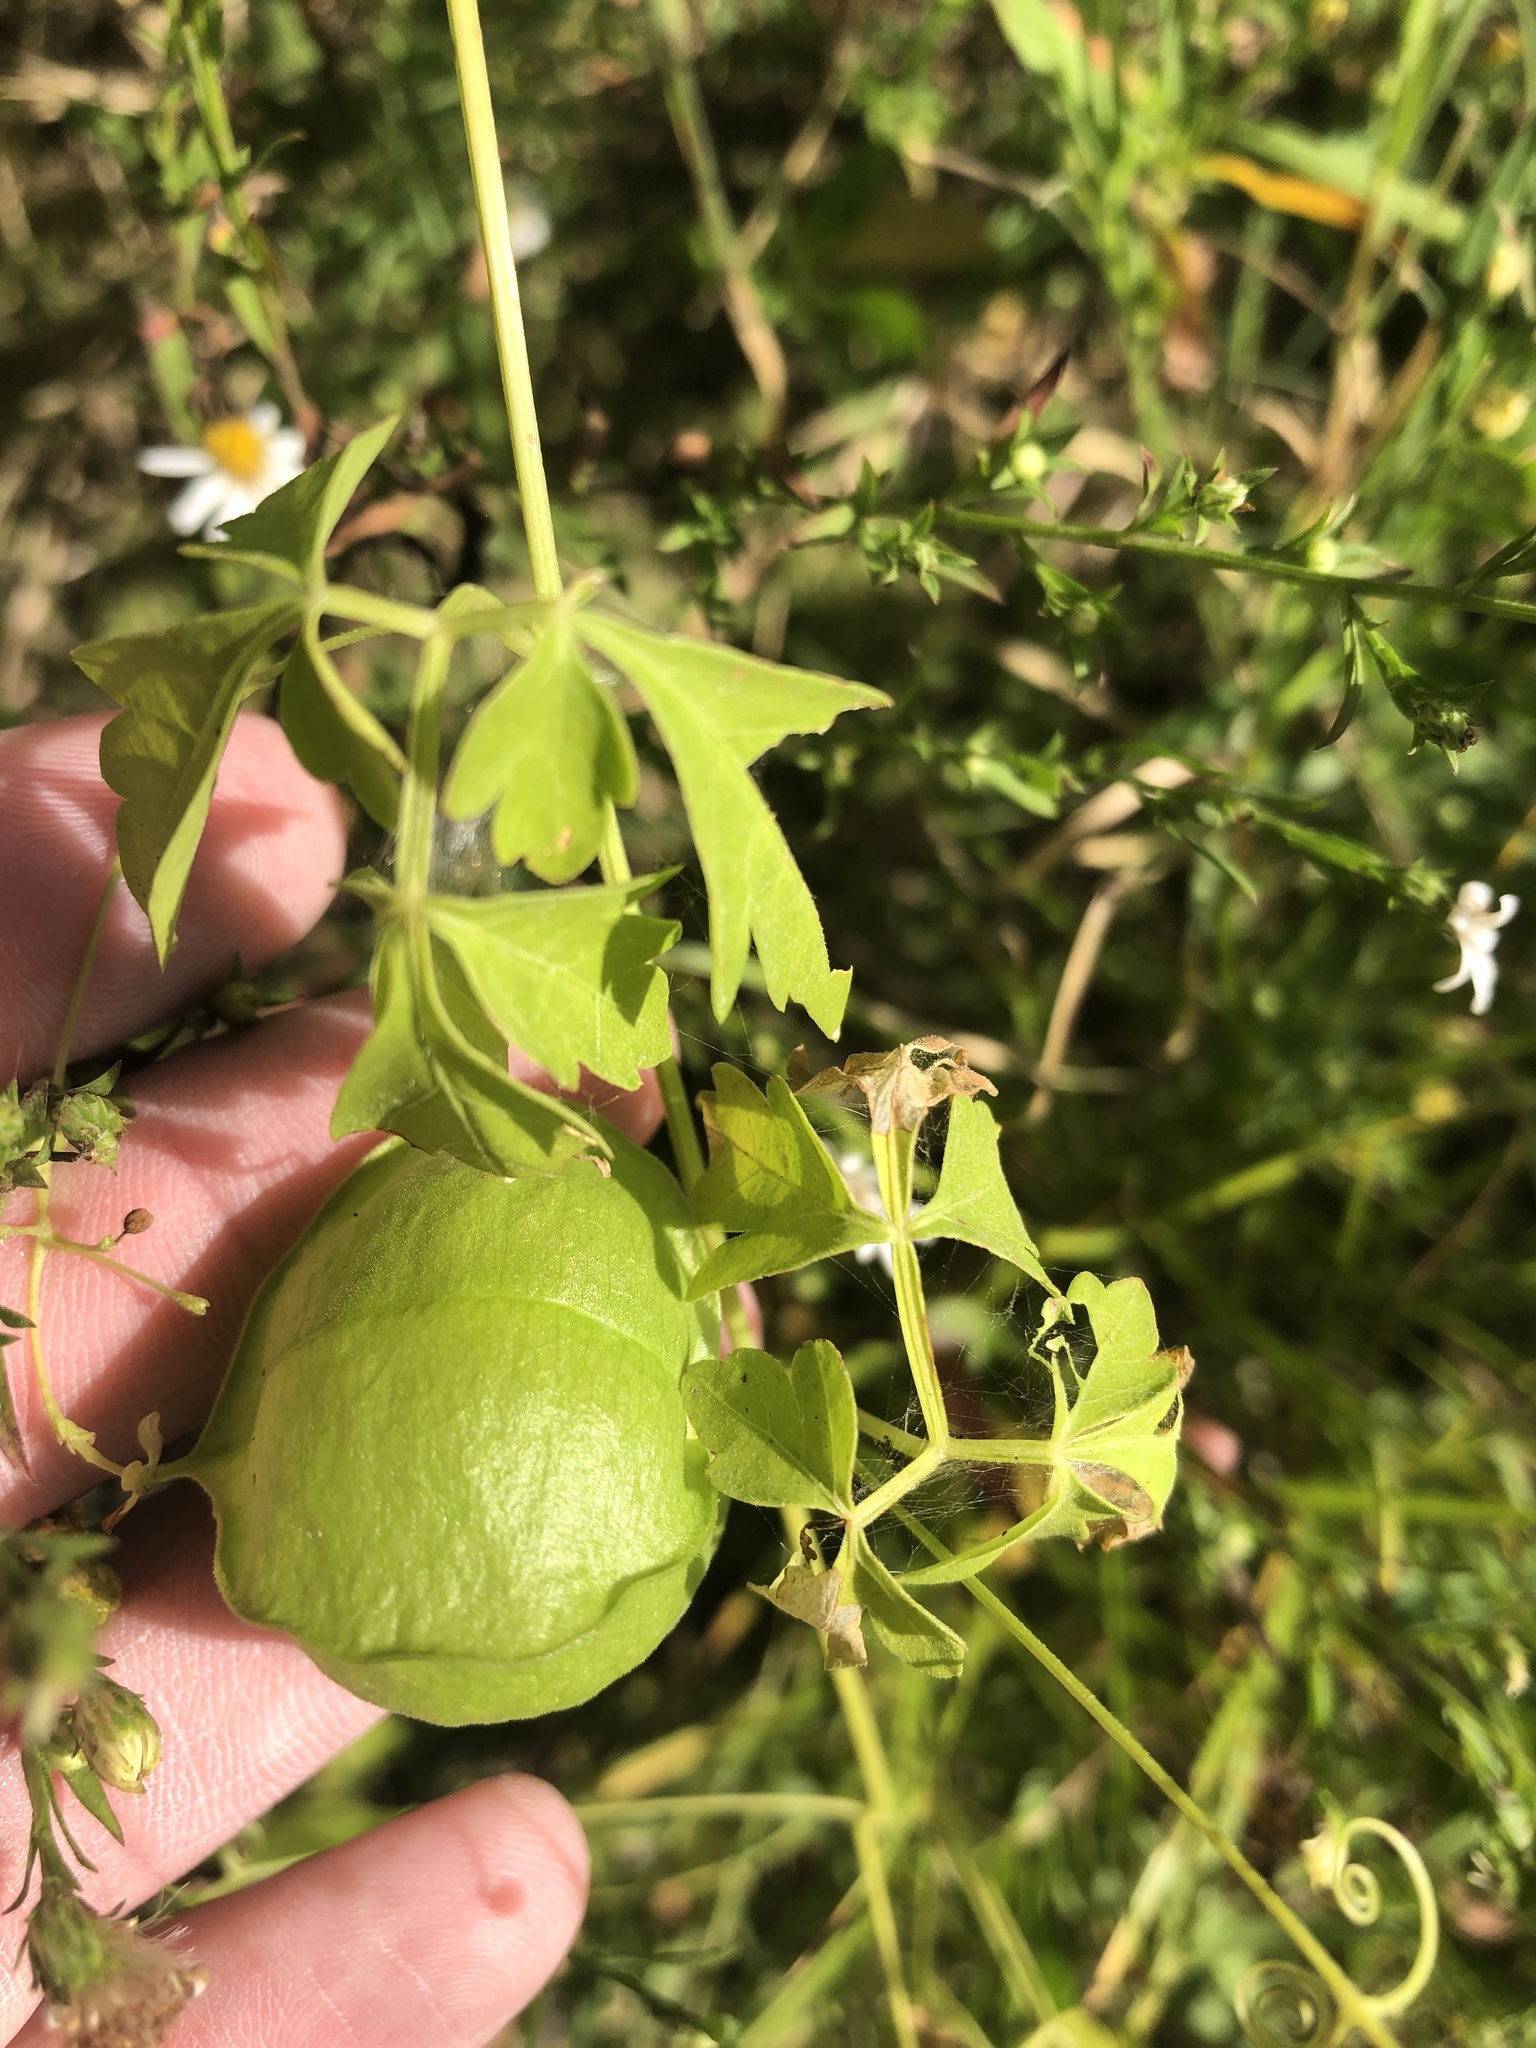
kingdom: Plantae
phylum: Tracheophyta
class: Magnoliopsida
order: Sapindales
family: Sapindaceae
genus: Cardiospermum
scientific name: Cardiospermum halicacabum
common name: Balloon vine
